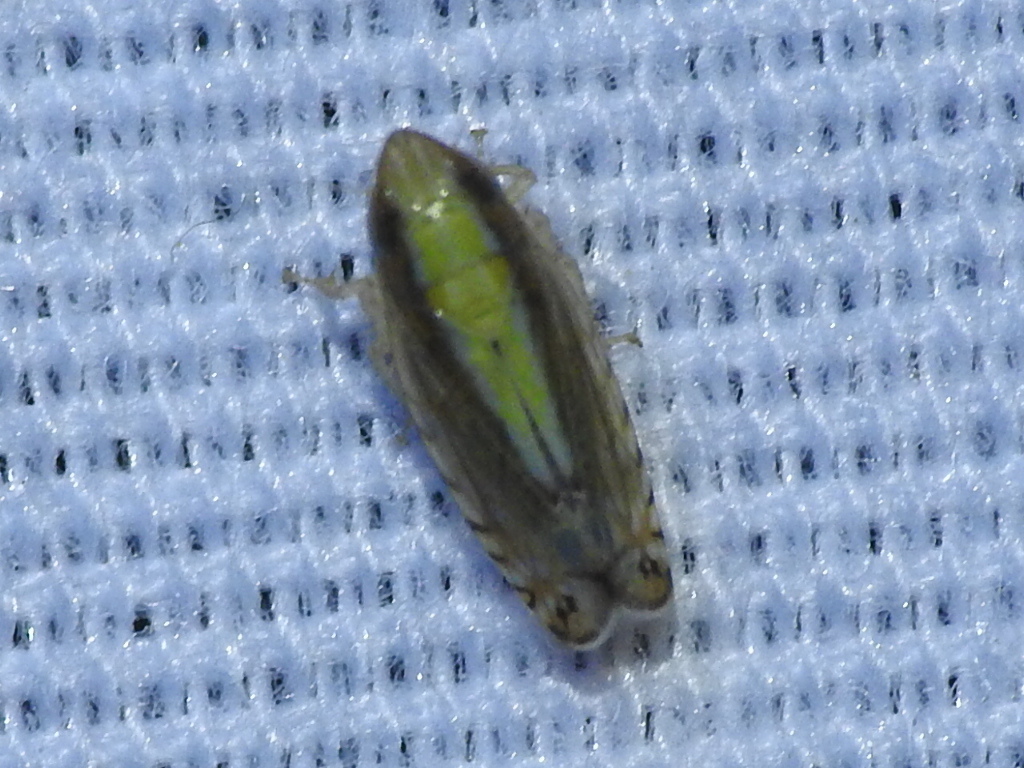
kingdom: Animalia
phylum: Arthropoda
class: Insecta
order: Hemiptera
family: Cicadellidae
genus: Scaphytopius
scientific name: Scaphytopius elegans
